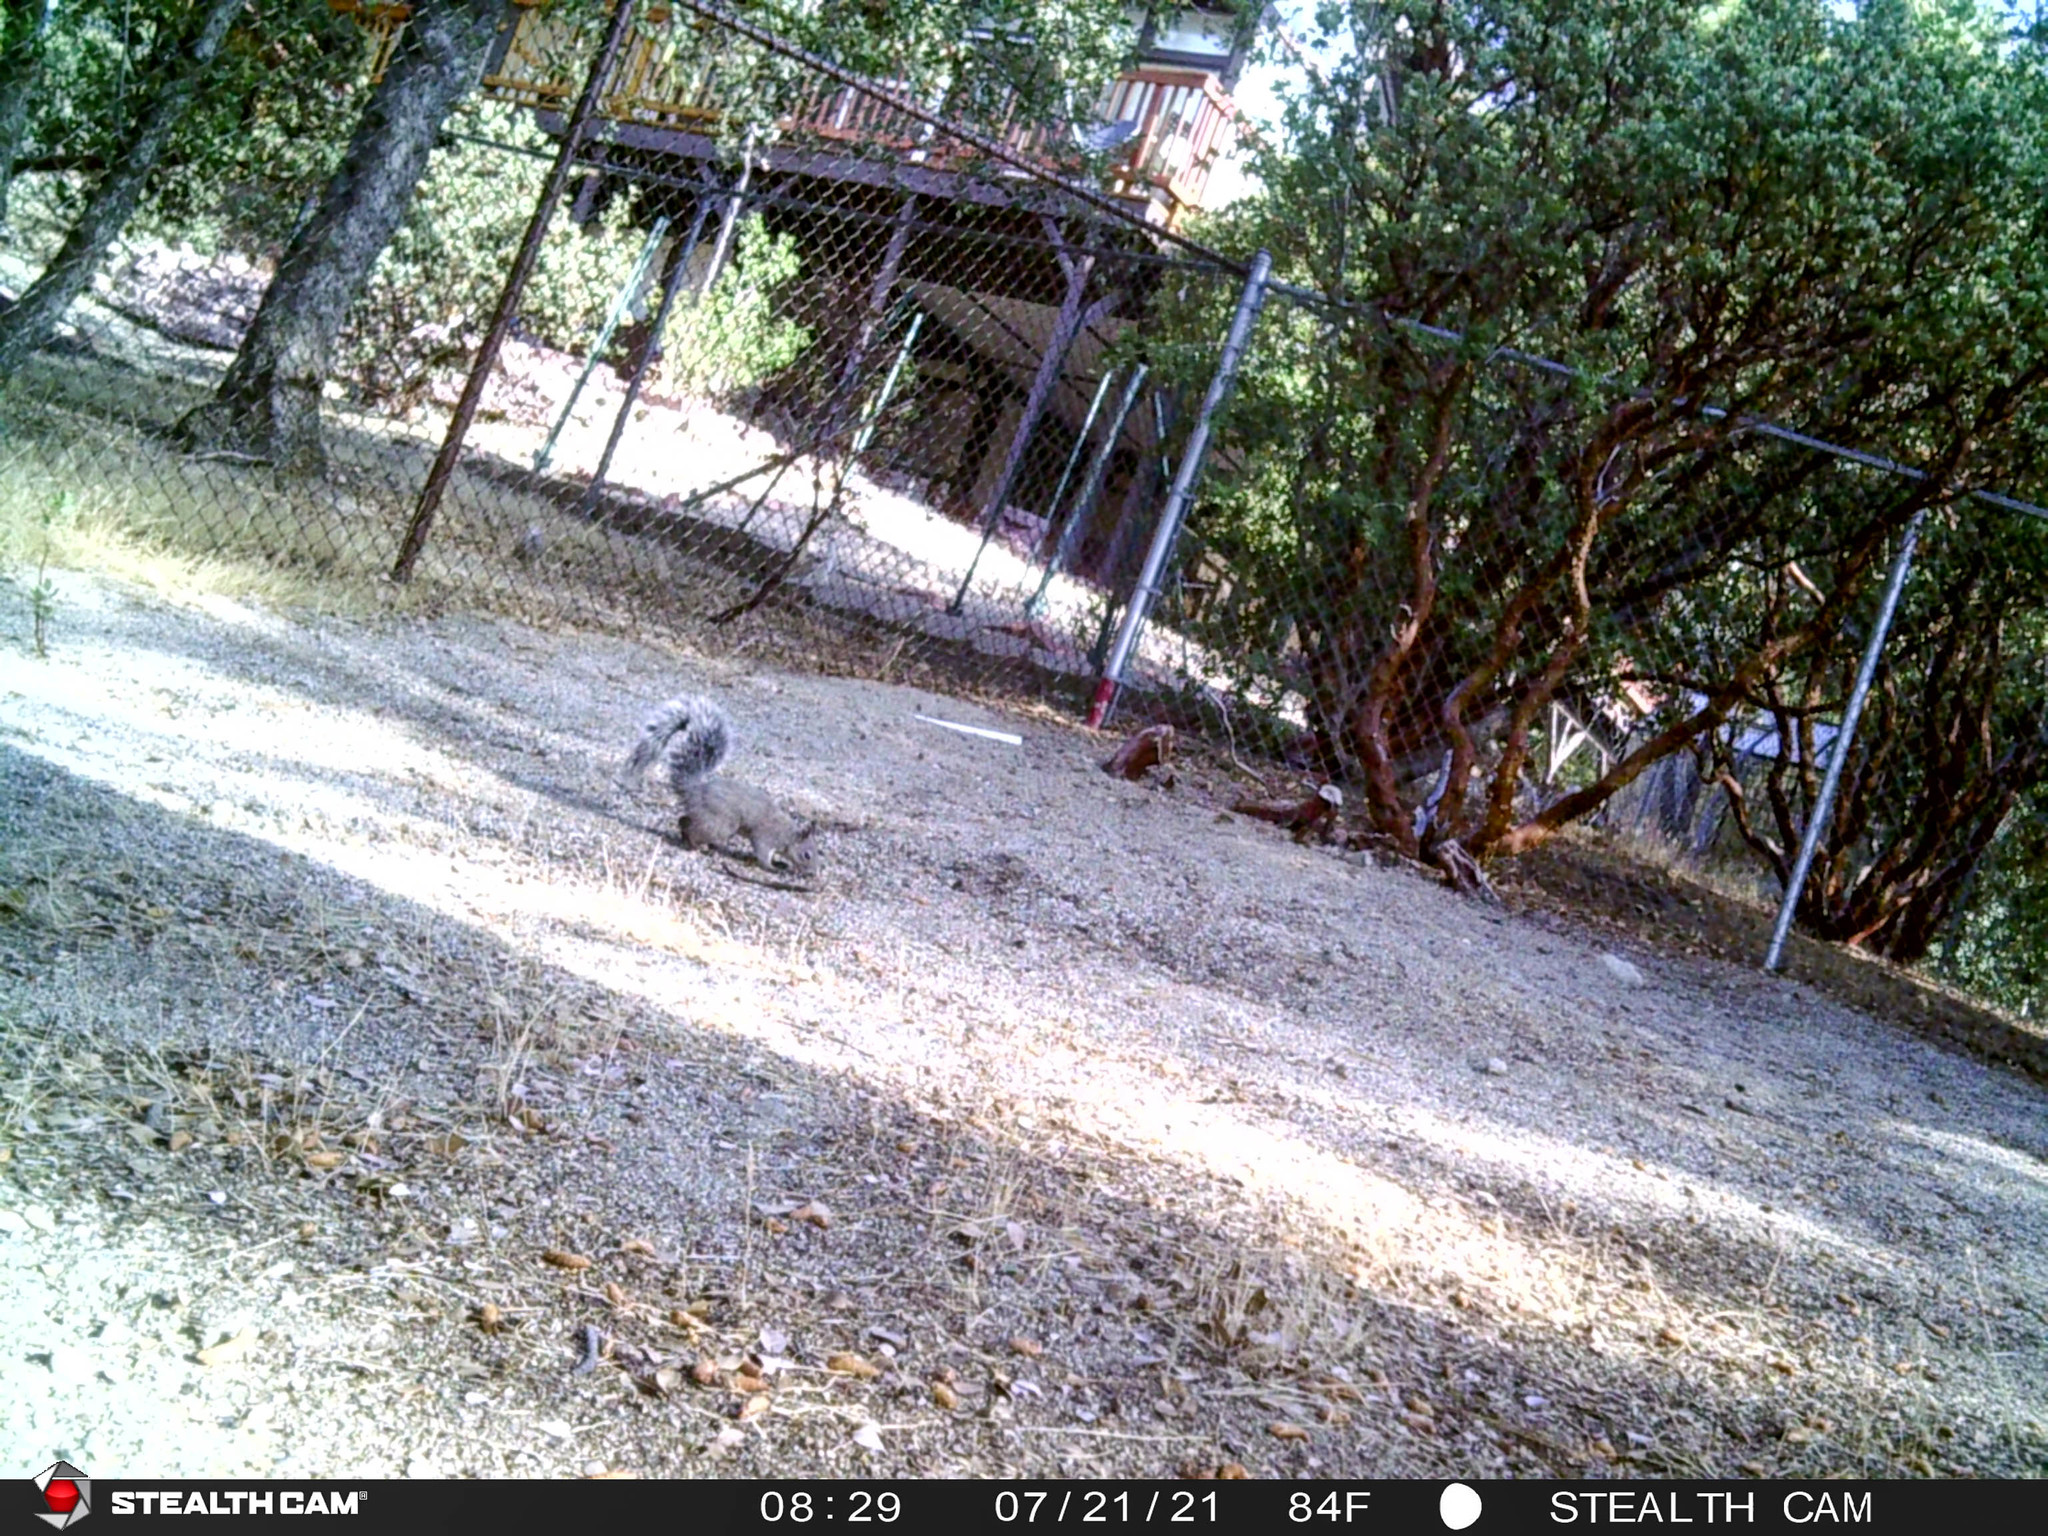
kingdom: Animalia
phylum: Chordata
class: Mammalia
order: Rodentia
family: Sciuridae
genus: Sciurus
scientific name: Sciurus griseus
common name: Western gray squirrel
